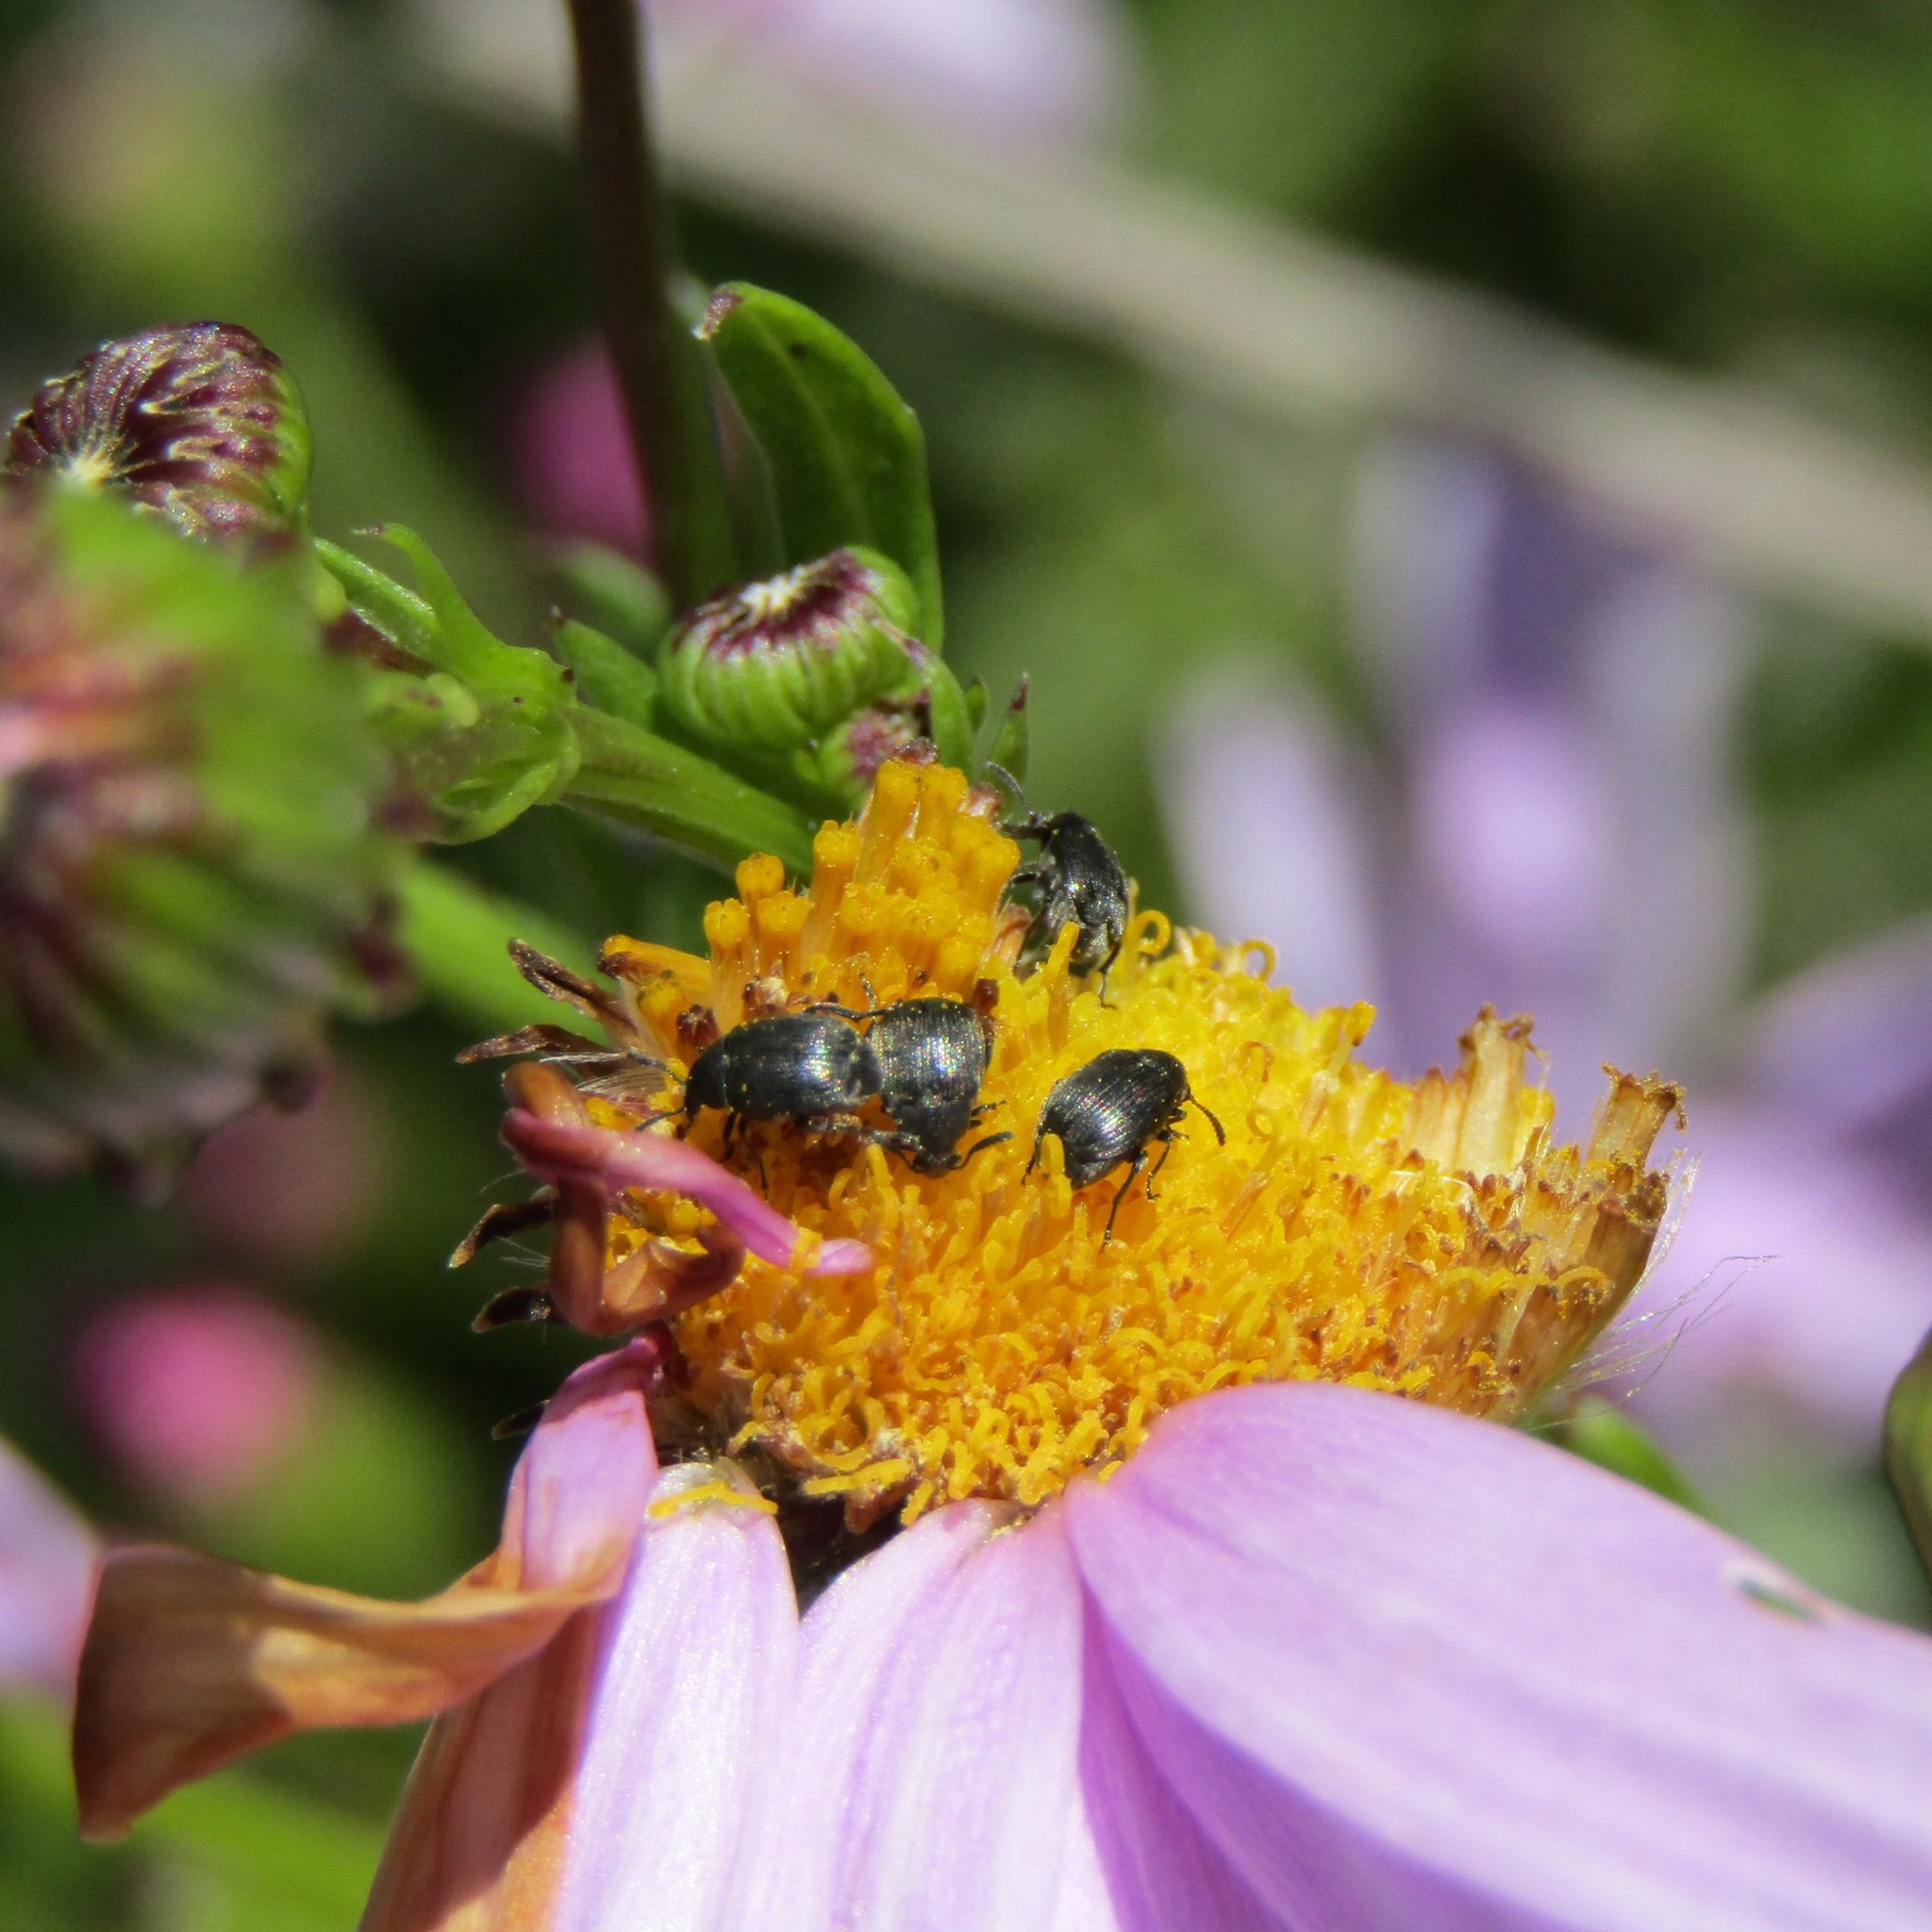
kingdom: Animalia
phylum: Arthropoda
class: Insecta
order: Coleoptera
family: Chrysomelidae
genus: Bruchidius
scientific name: Bruchidius villosus
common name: Scotch broom bruchid
